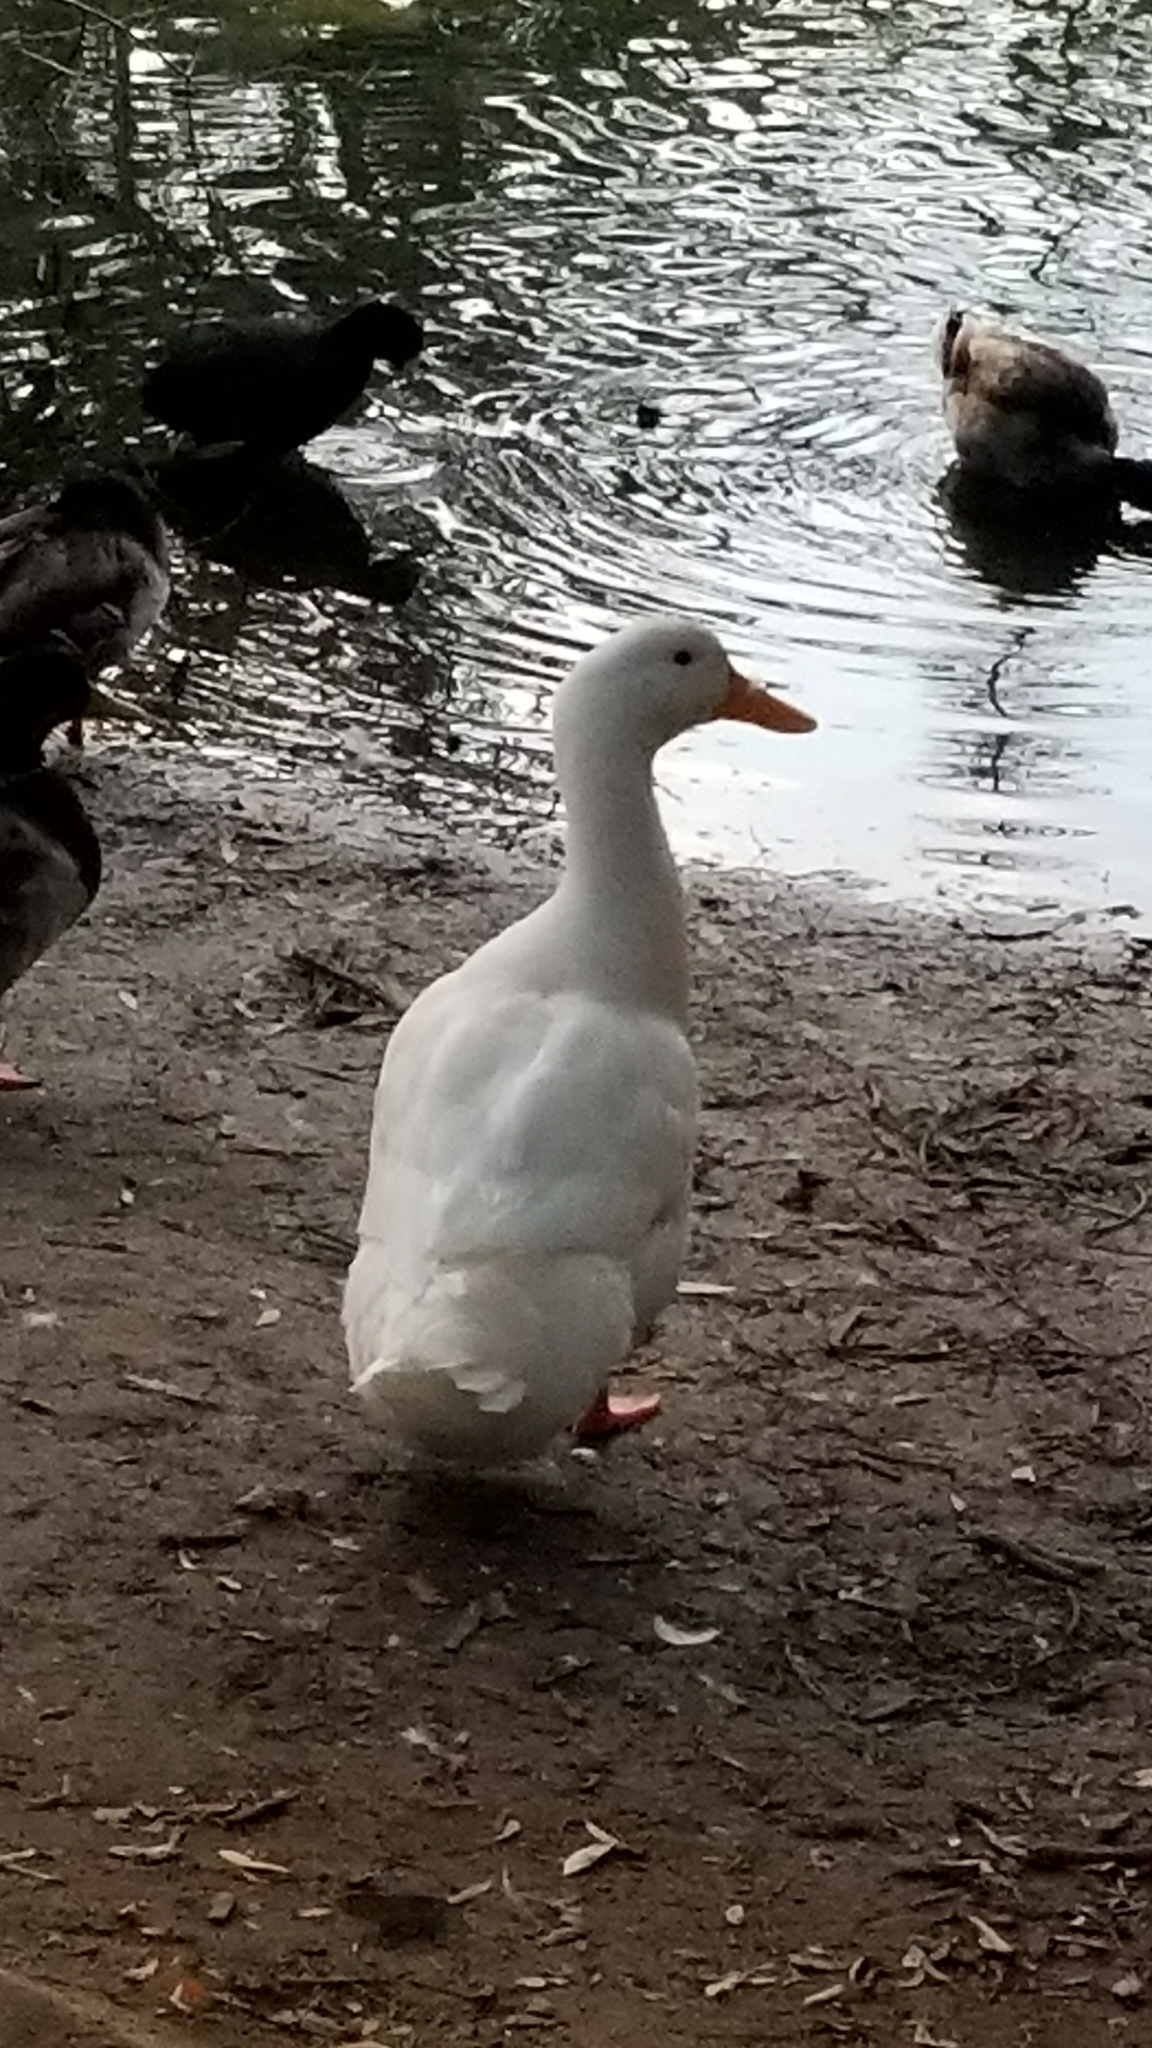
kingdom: Animalia
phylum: Chordata
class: Aves
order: Anseriformes
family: Anatidae
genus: Anas
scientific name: Anas platyrhynchos
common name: Mallard
